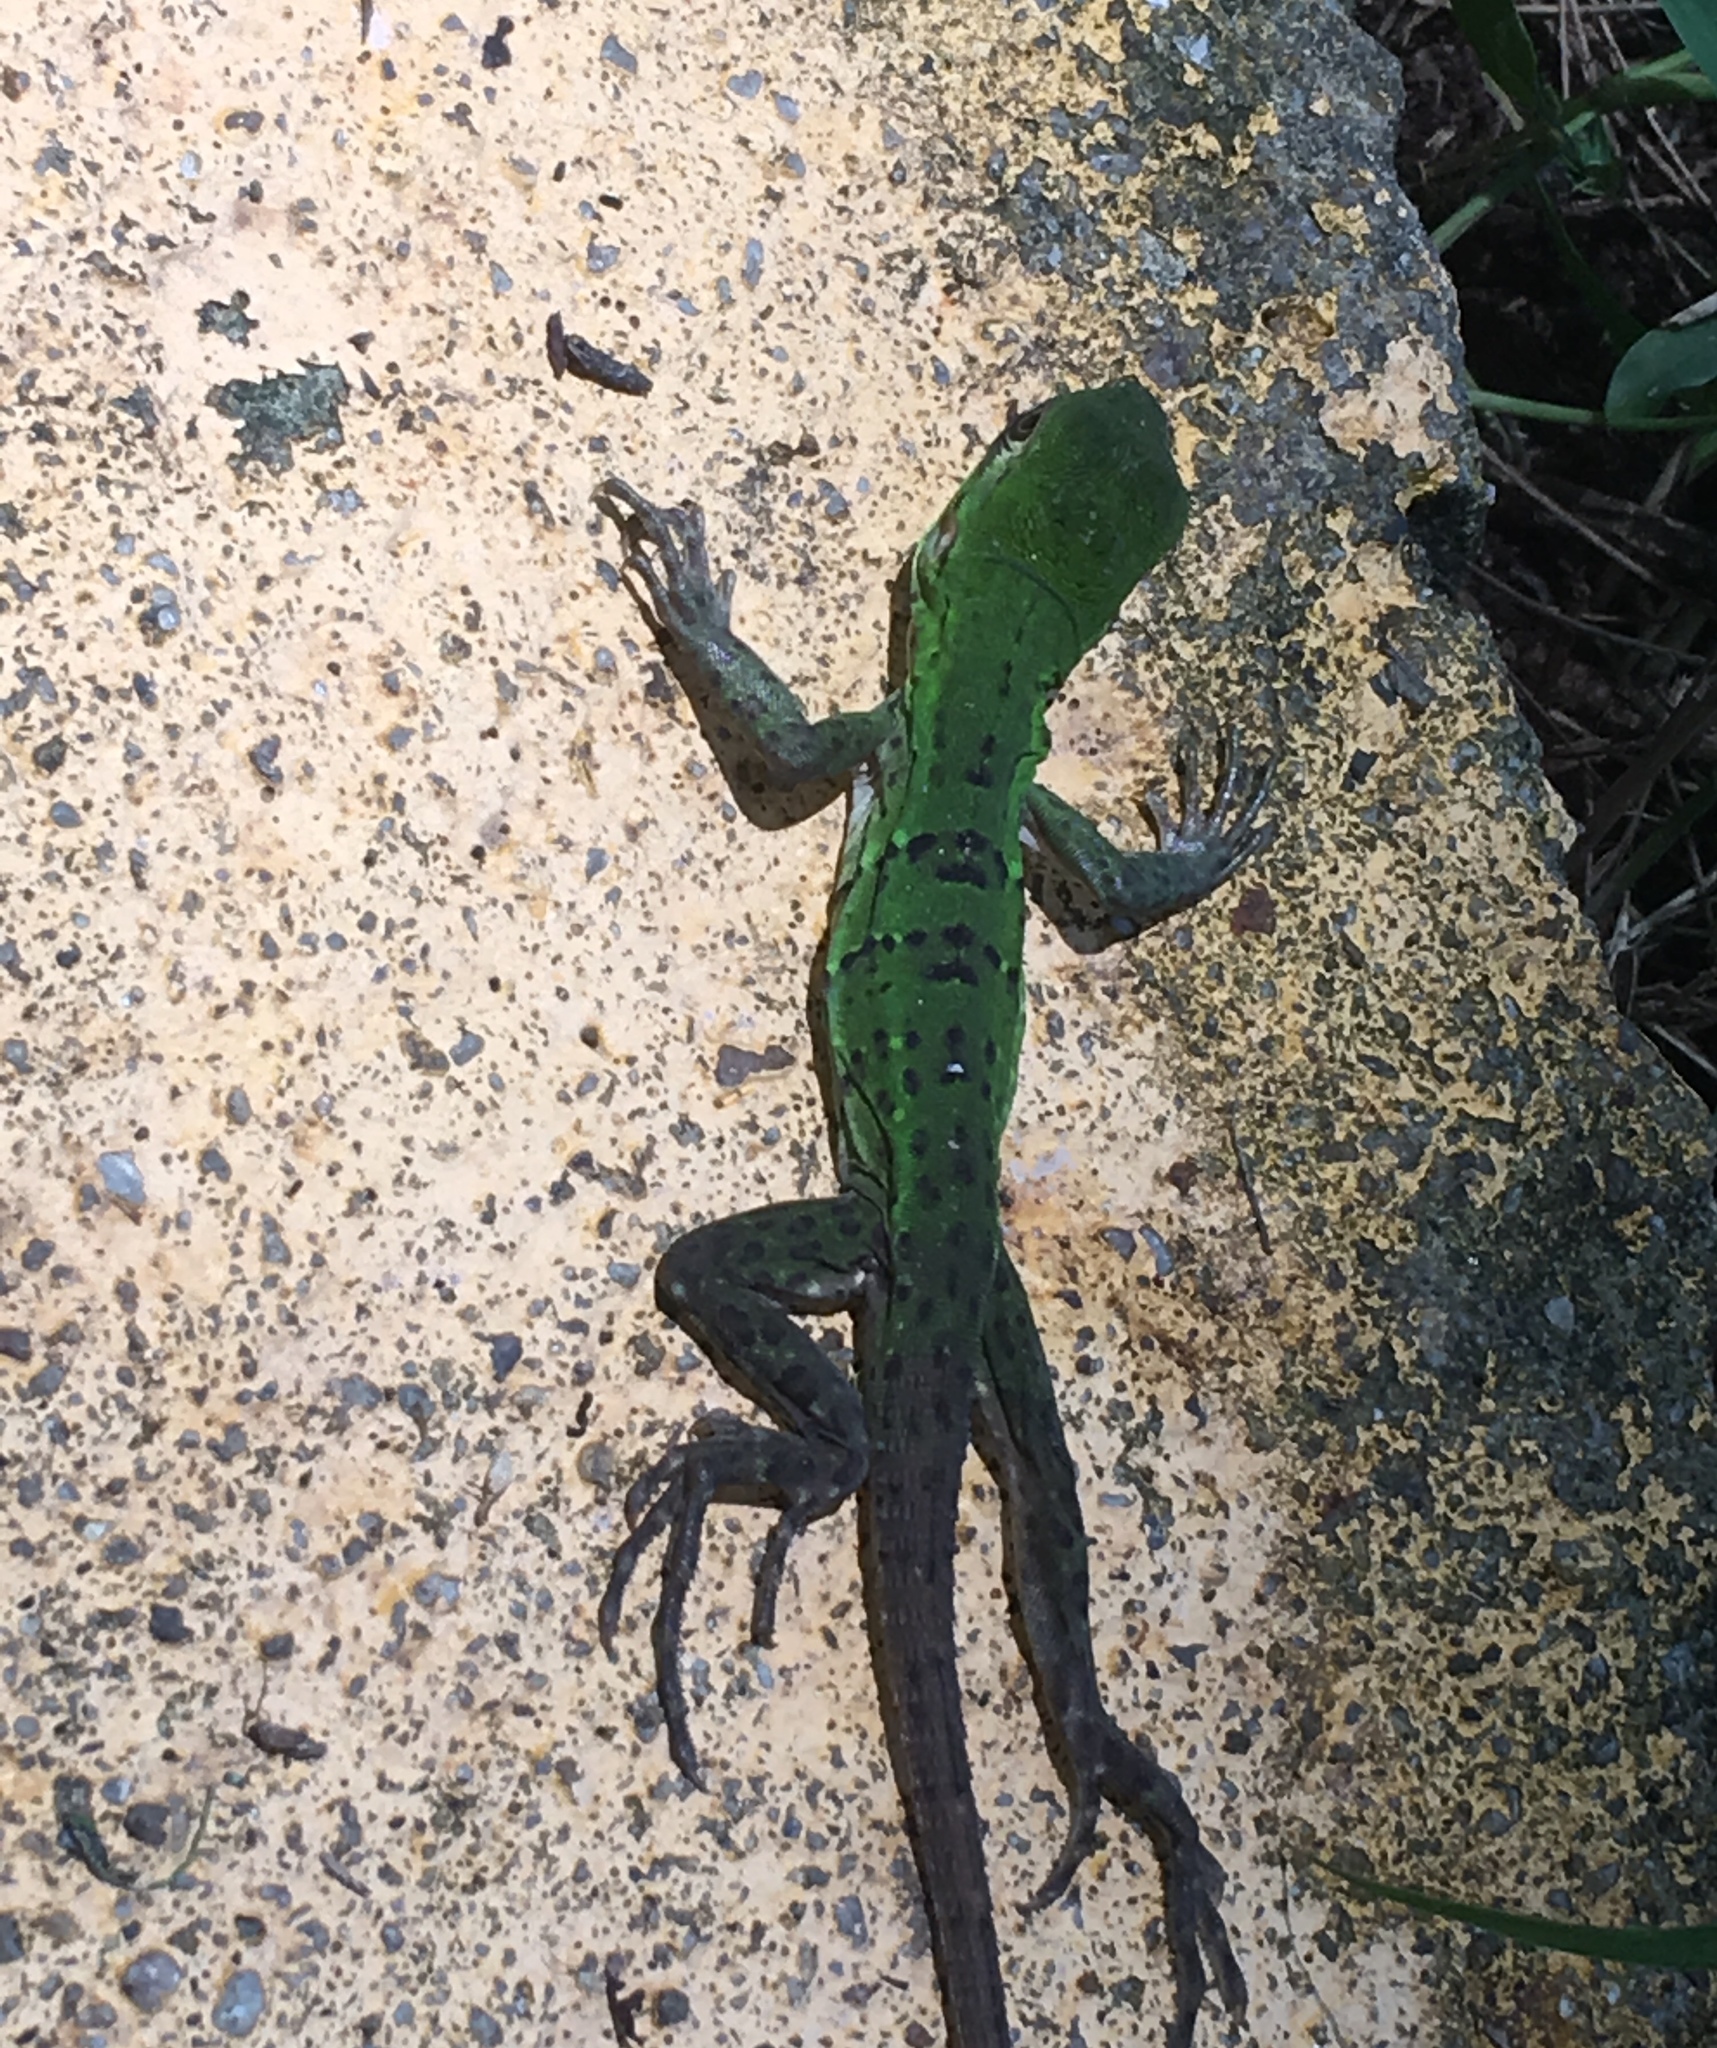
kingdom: Animalia
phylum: Chordata
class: Squamata
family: Iguanidae
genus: Ctenosaura
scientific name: Ctenosaura similis
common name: Black spiny-tailed iguana
